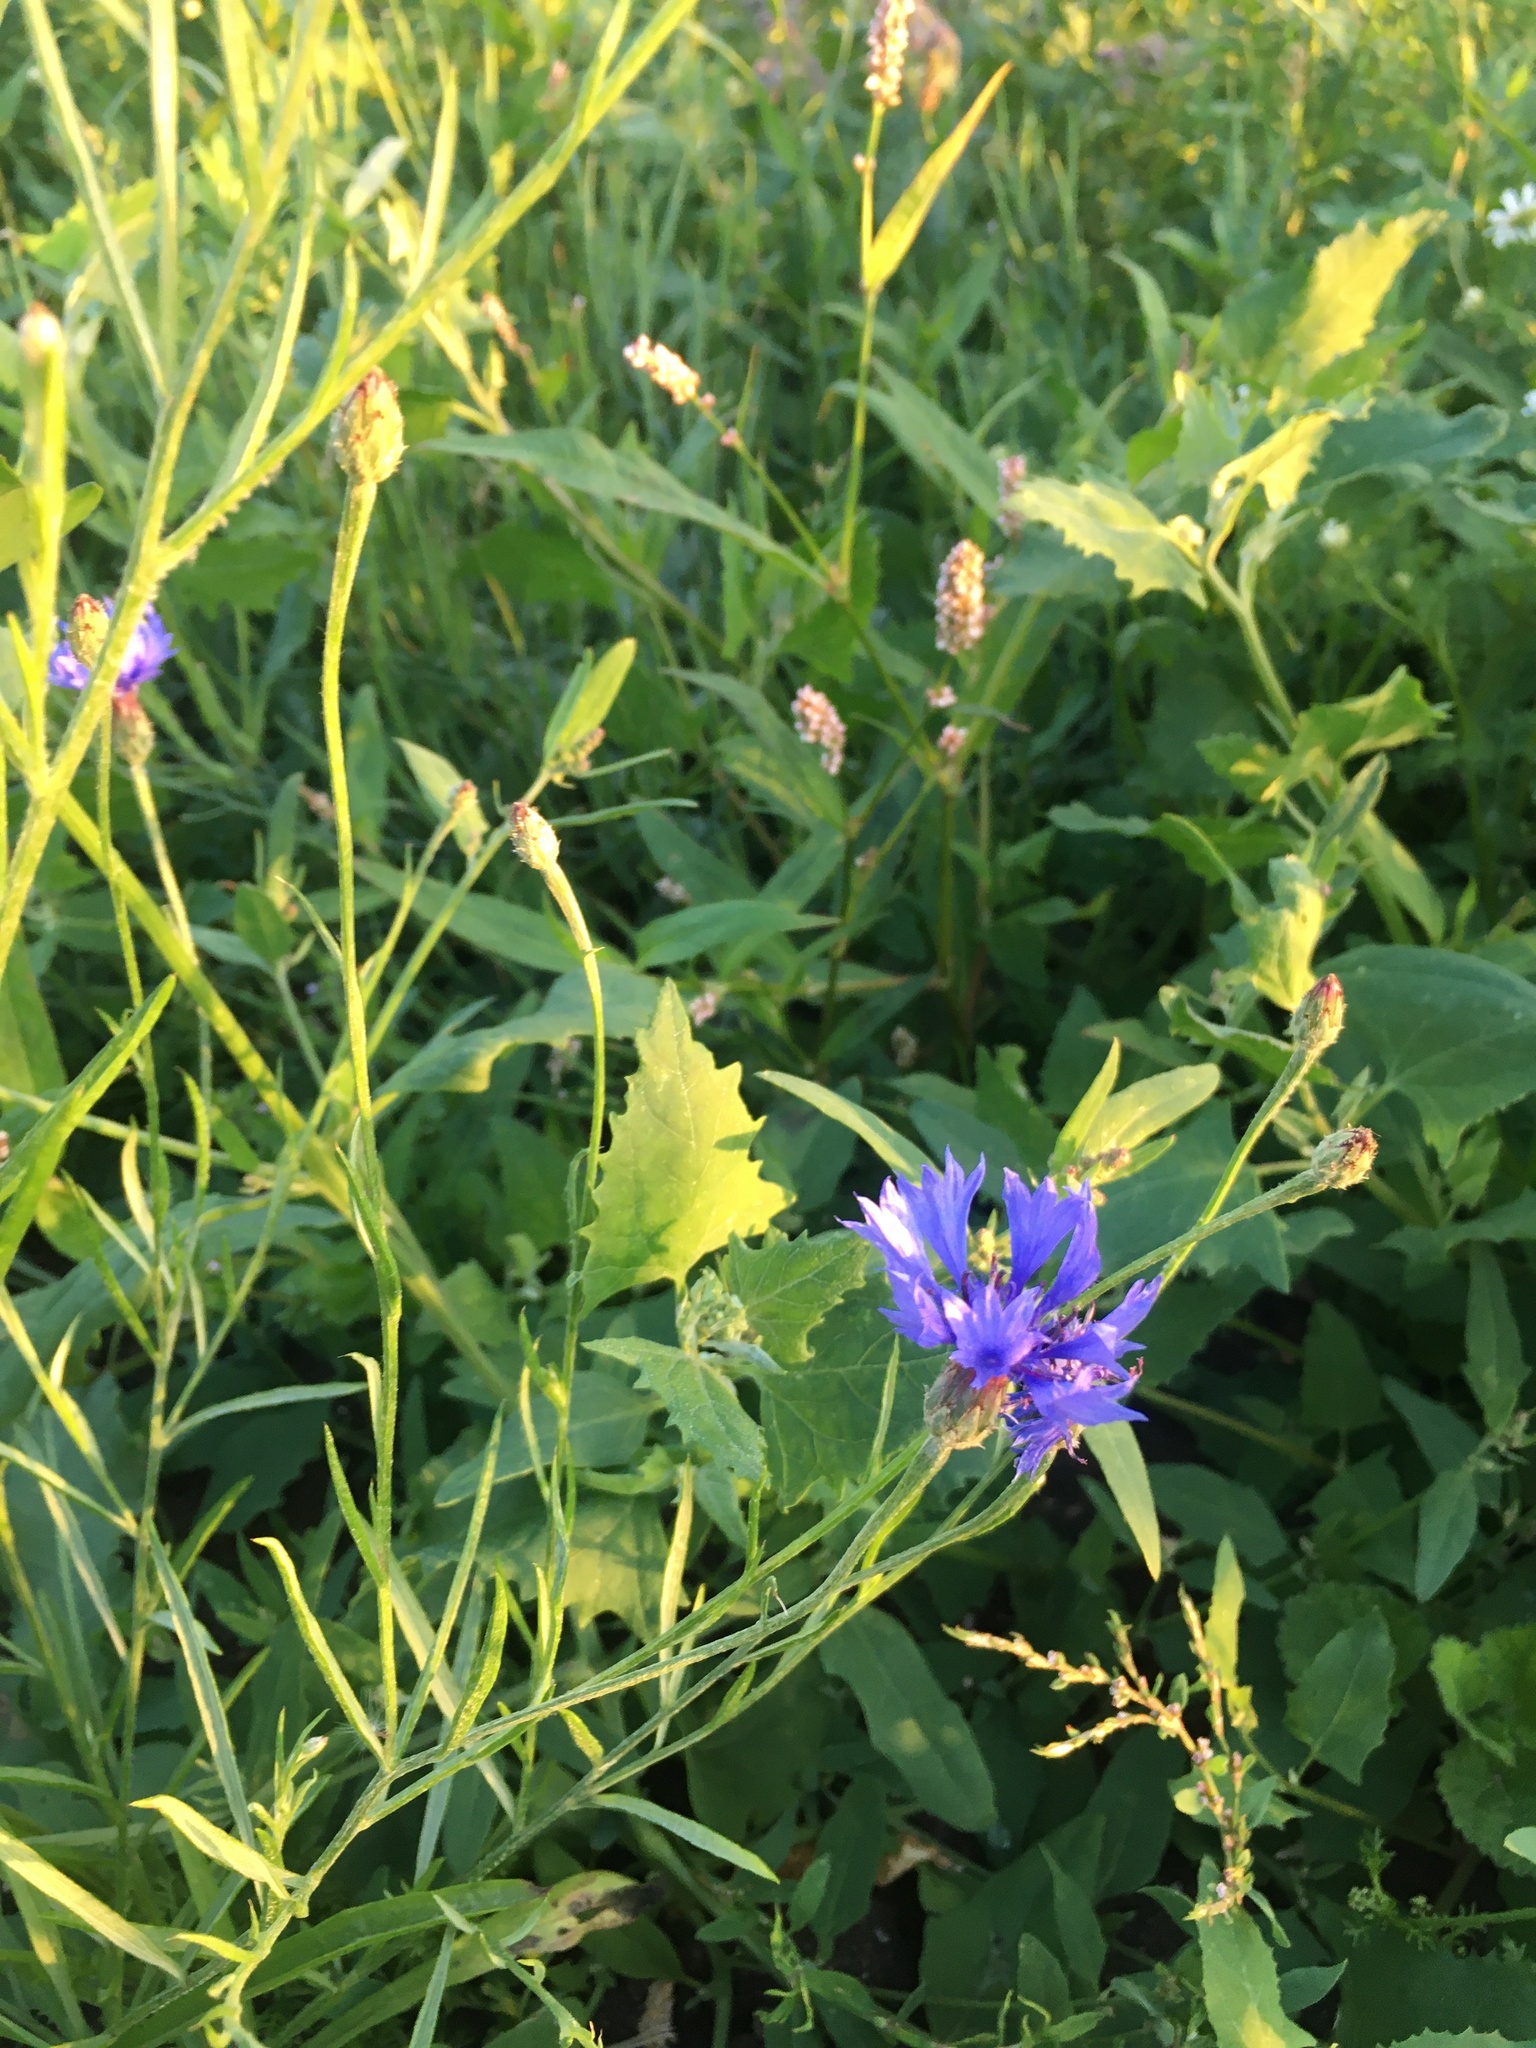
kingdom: Plantae
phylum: Tracheophyta
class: Magnoliopsida
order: Asterales
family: Asteraceae
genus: Centaurea
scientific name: Centaurea cyanus
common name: Cornflower
